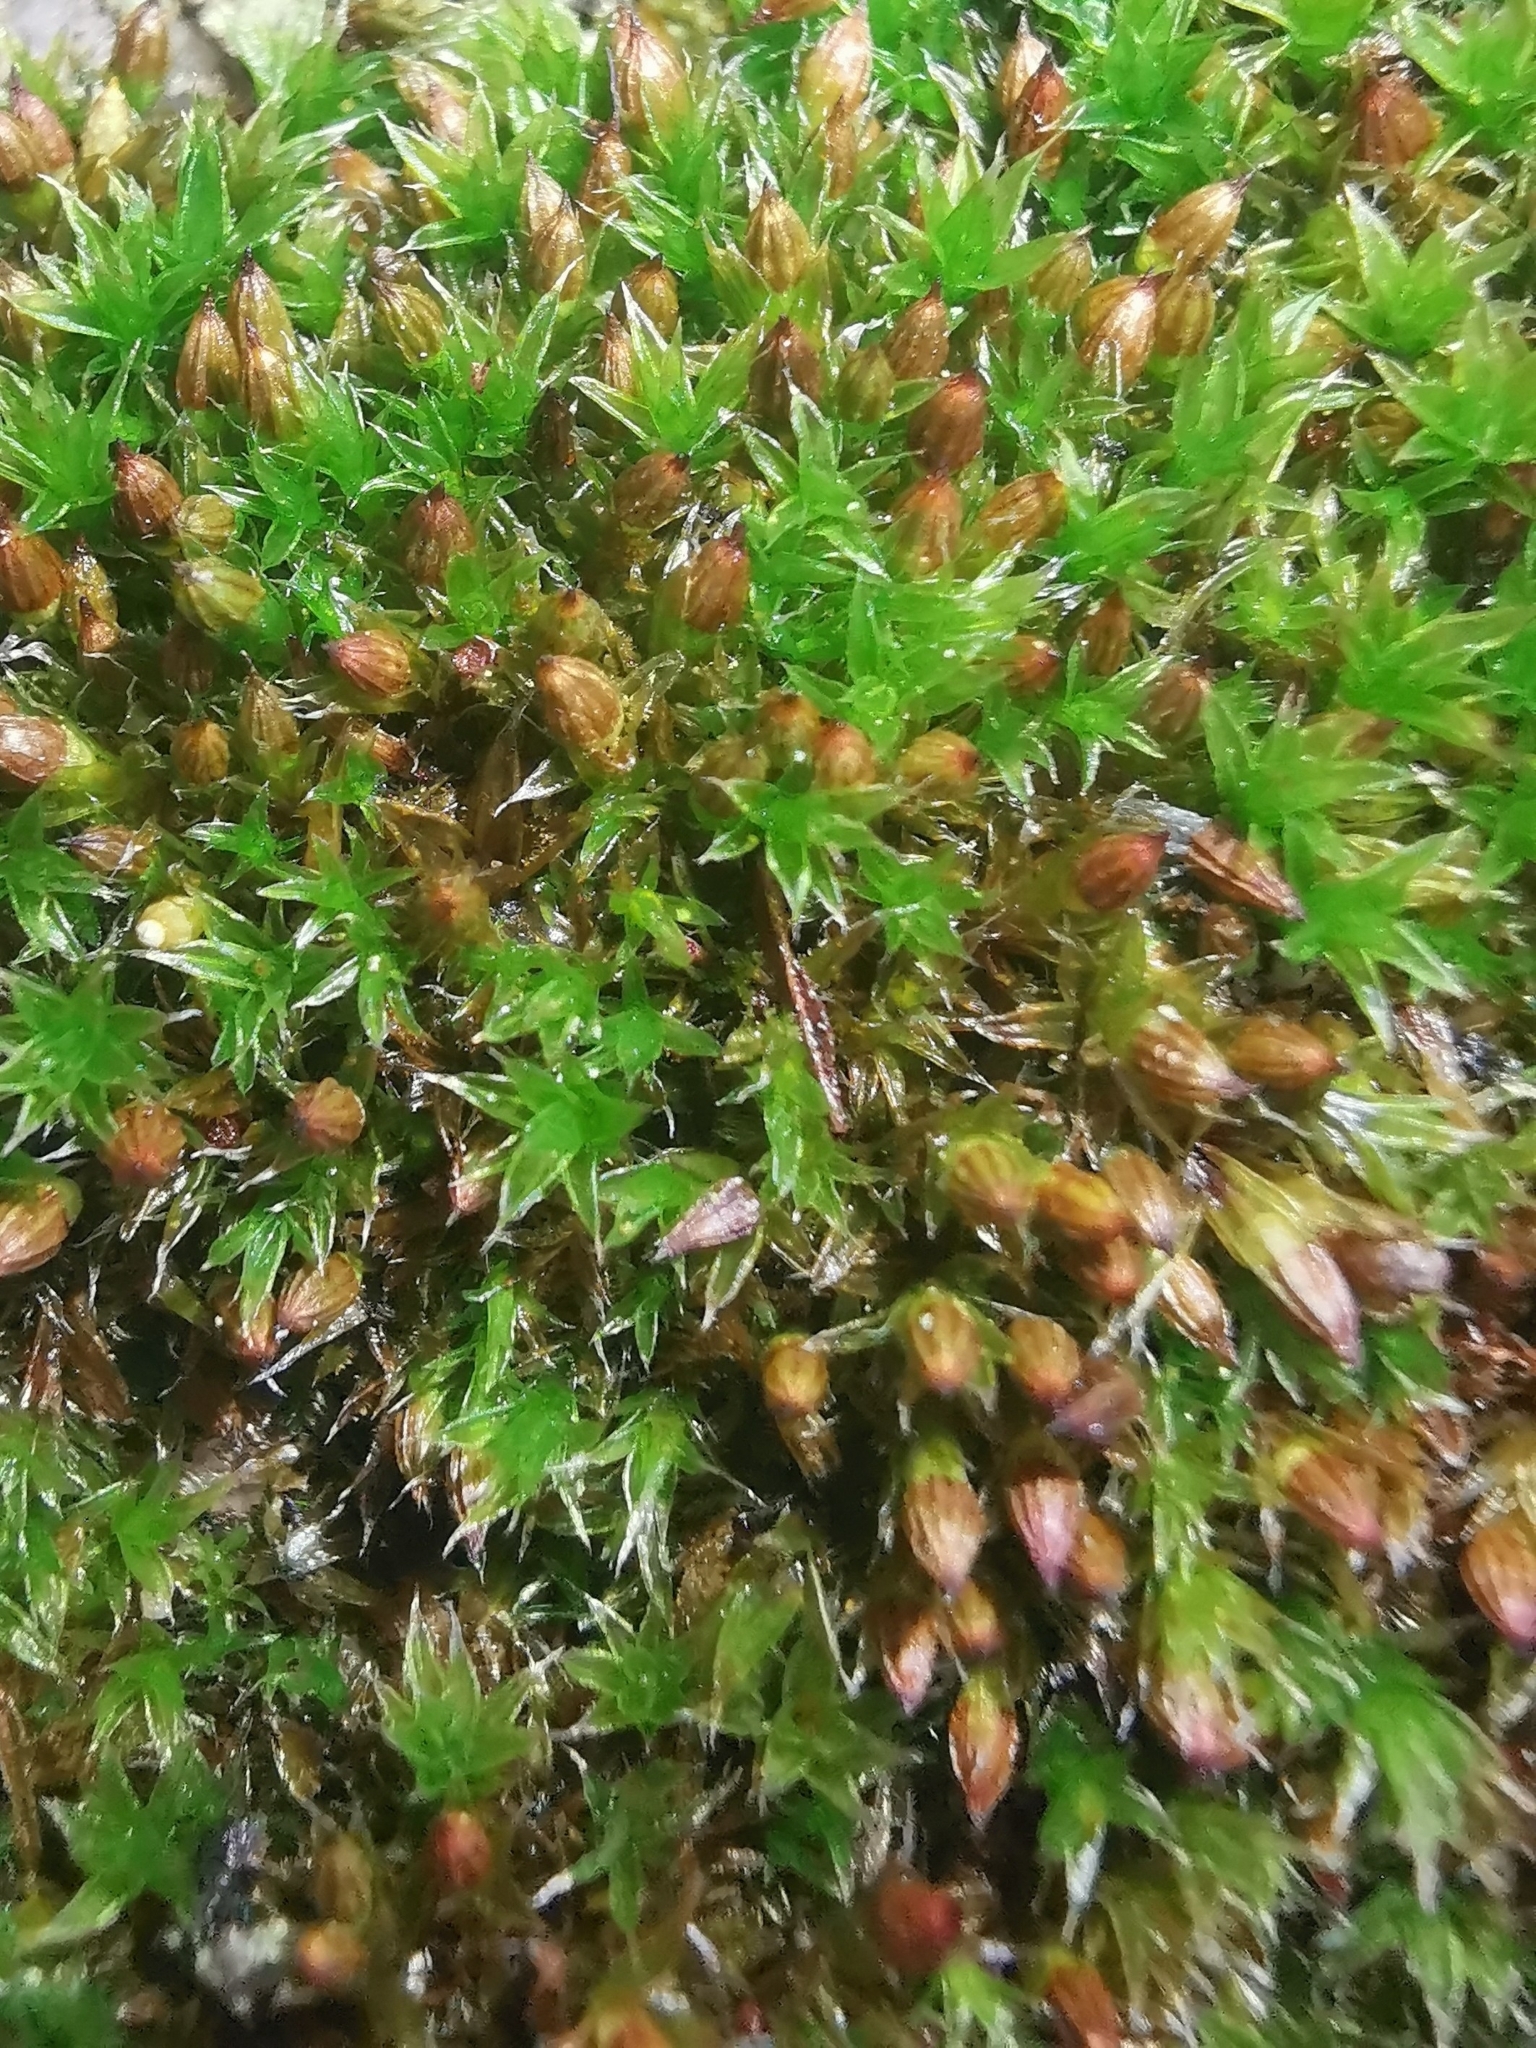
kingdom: Plantae
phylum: Bryophyta
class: Bryopsida
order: Orthotrichales
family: Orthotrichaceae
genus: Orthotrichum
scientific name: Orthotrichum diaphanum
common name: White-tipped bristle-moss
